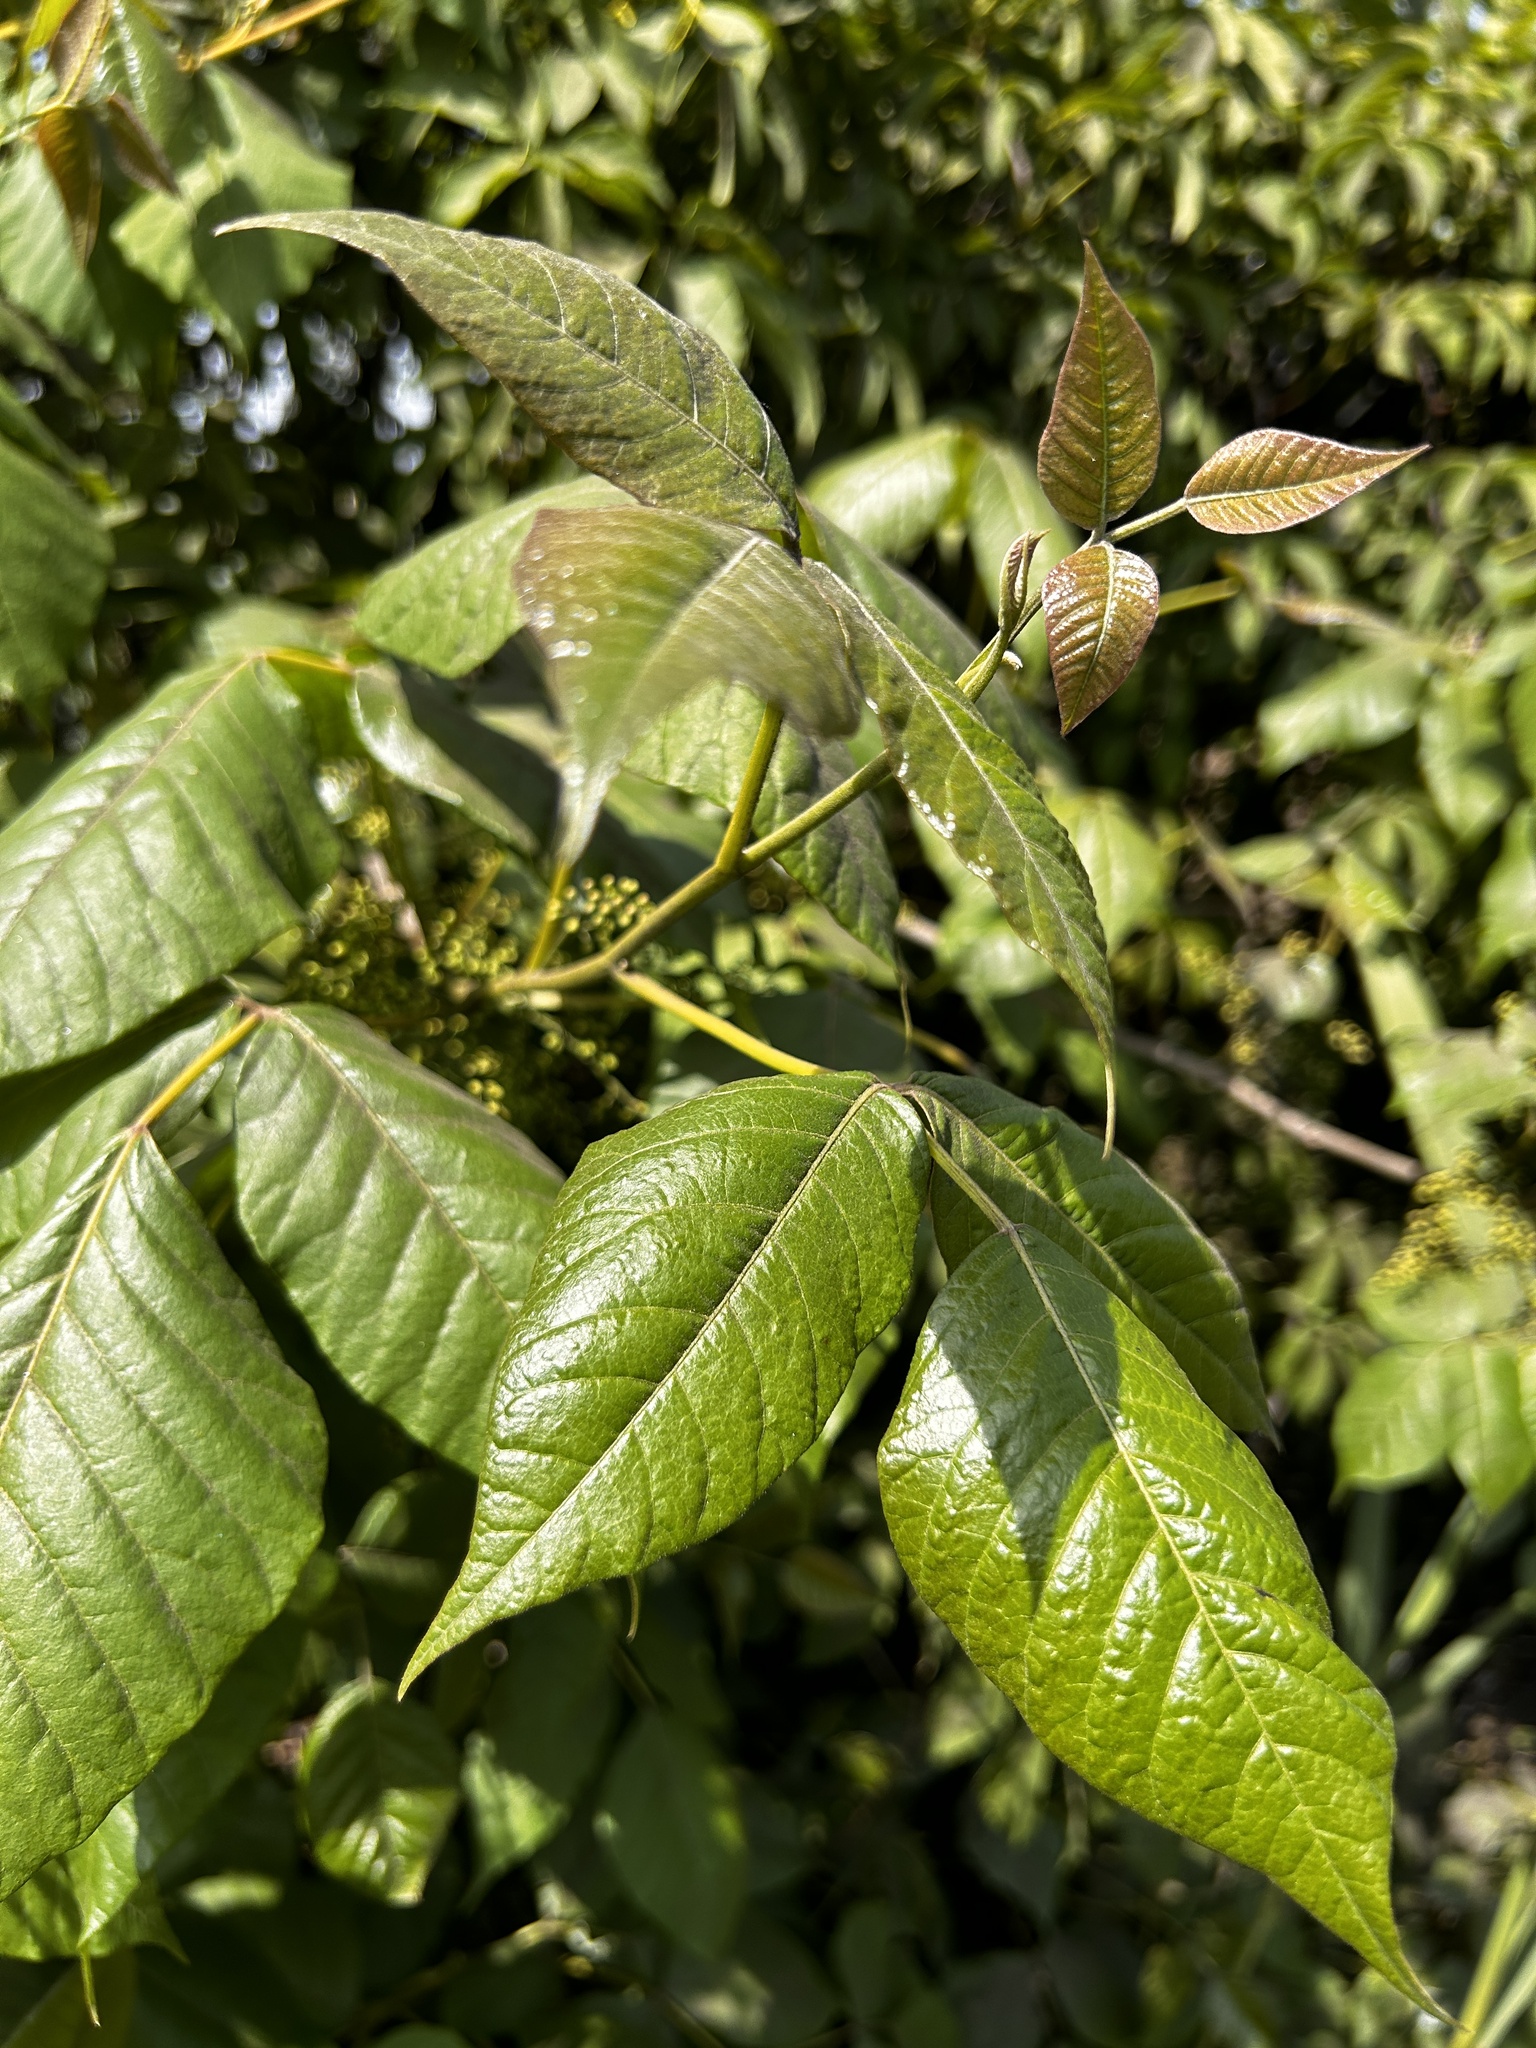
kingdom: Plantae
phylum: Tracheophyta
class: Magnoliopsida
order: Sapindales
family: Anacardiaceae
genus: Toxicodendron
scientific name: Toxicodendron radicans
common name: Poison ivy
